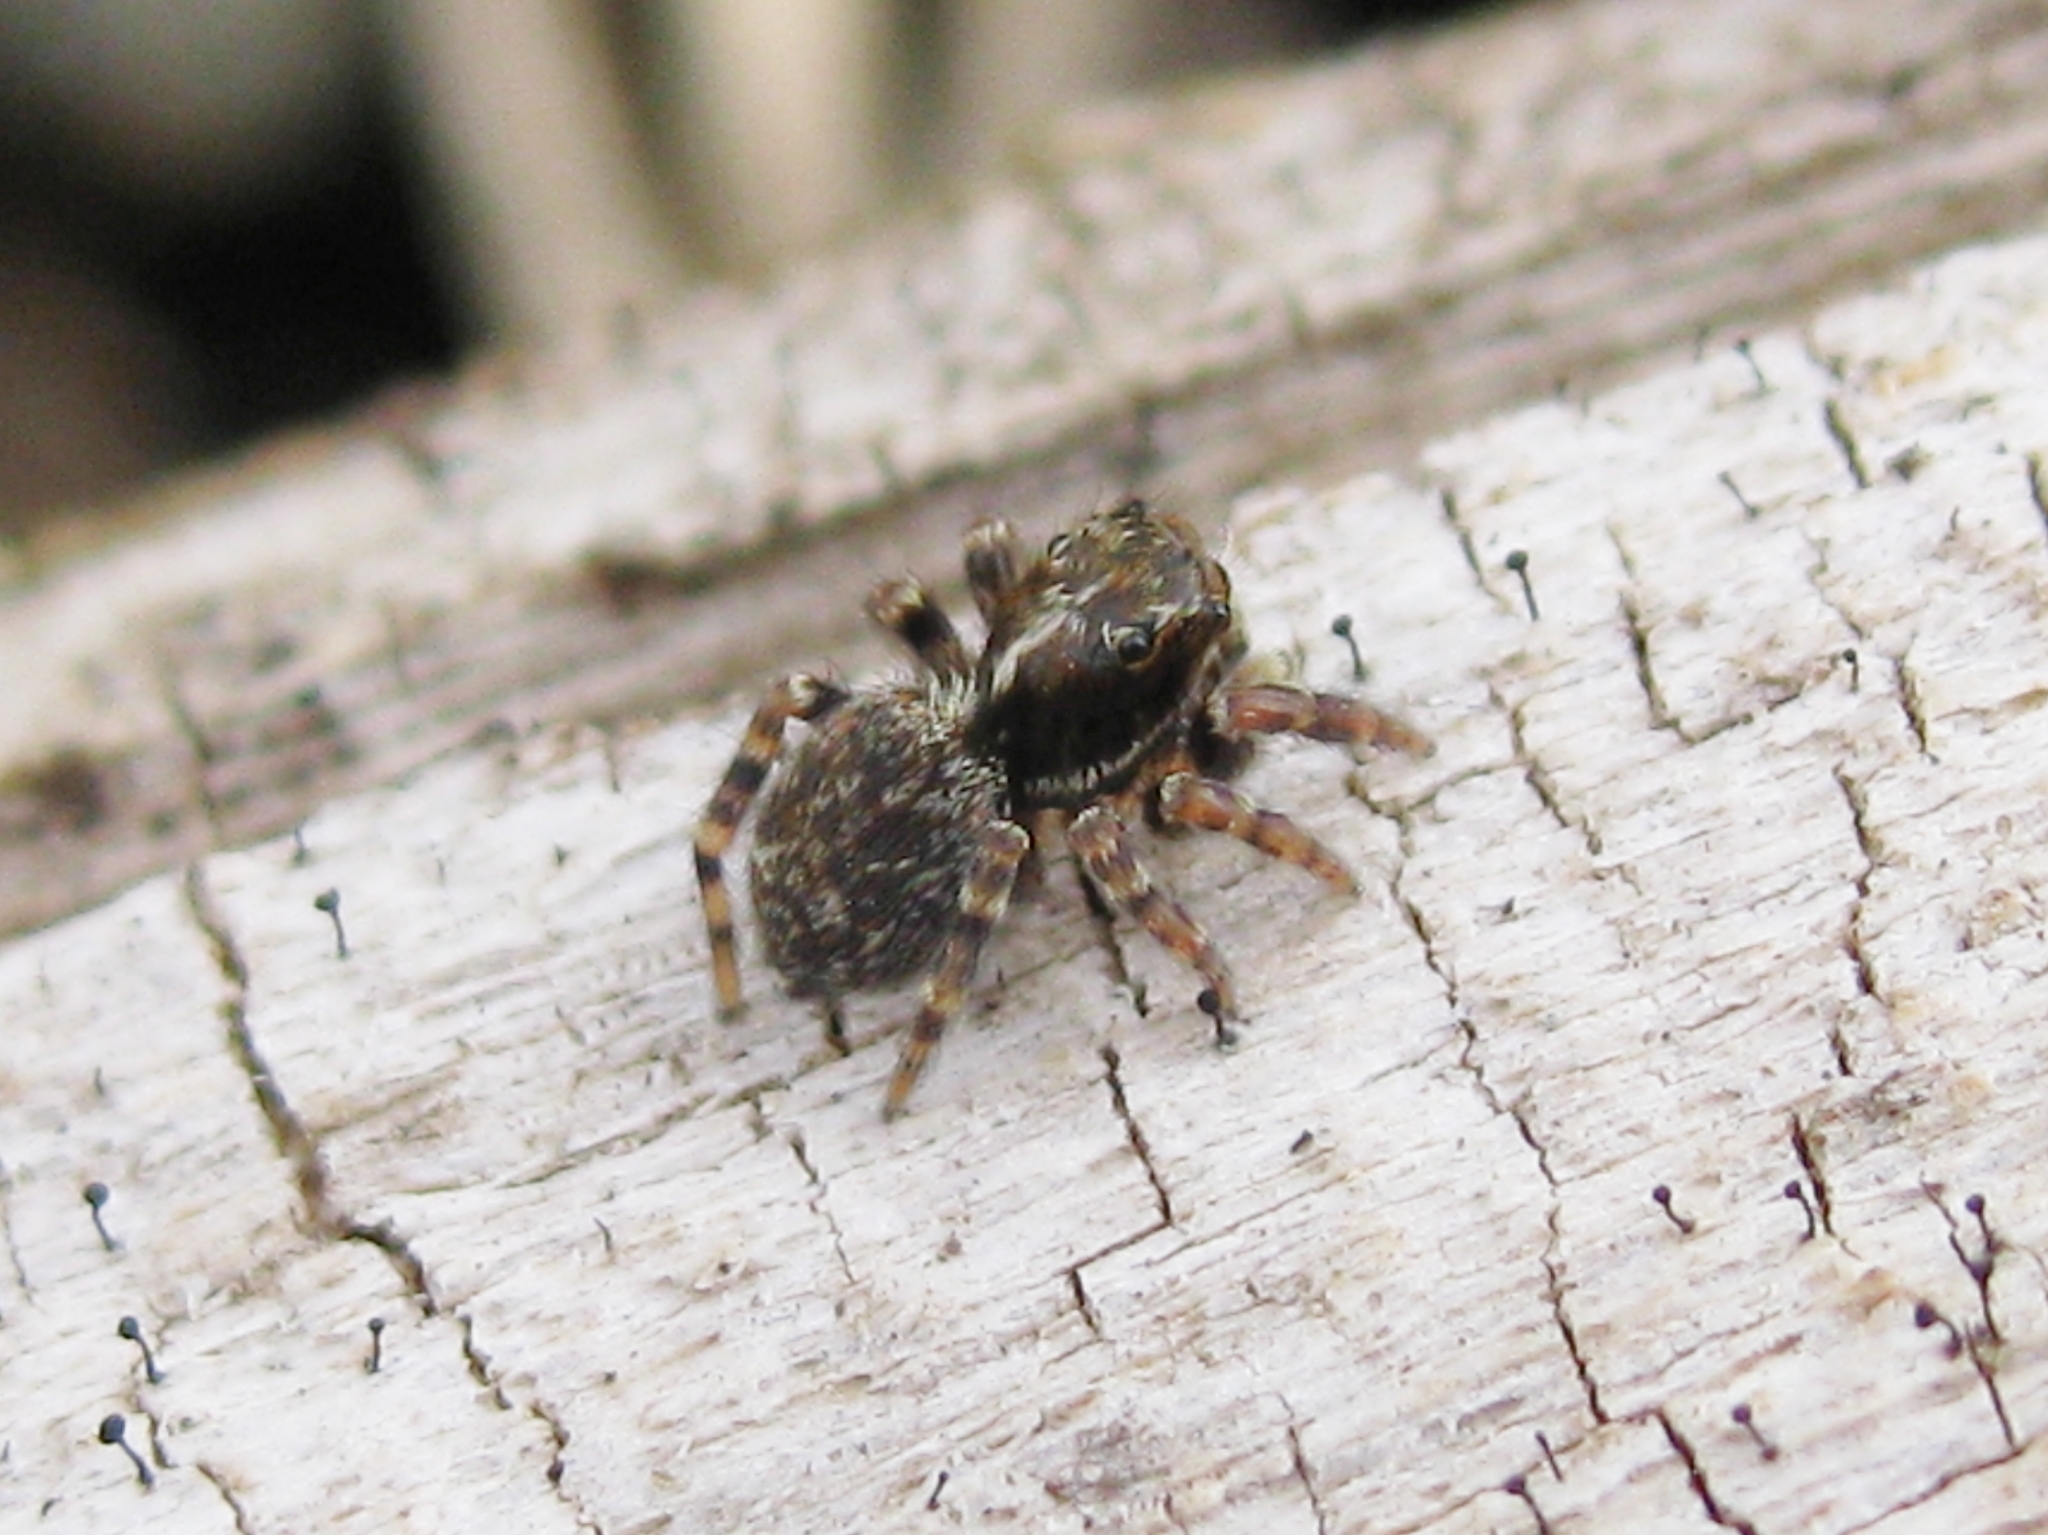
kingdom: Animalia
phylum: Arthropoda
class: Arachnida
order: Araneae
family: Salticidae
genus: Pseudeuophrys
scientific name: Pseudeuophrys erratica
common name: Jumping spider
